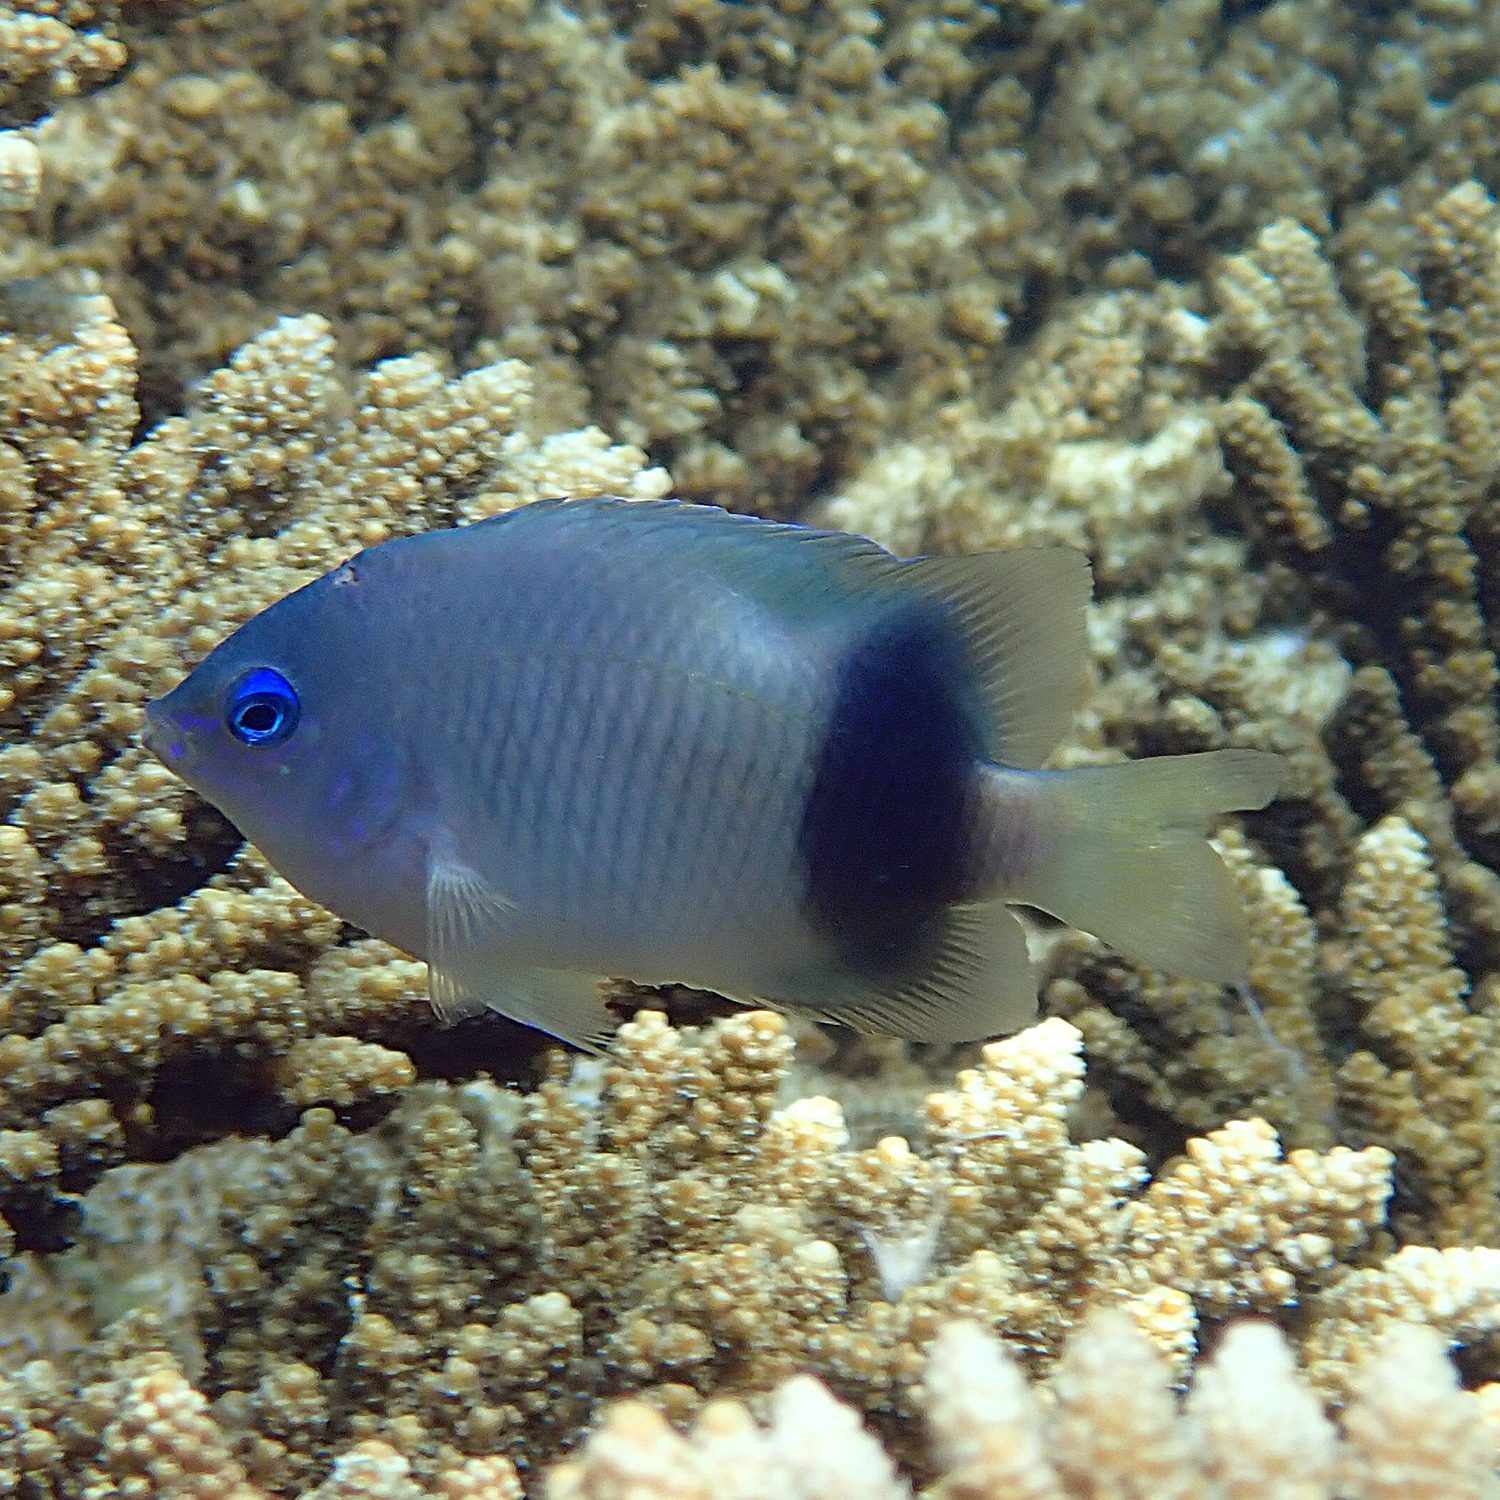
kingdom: Animalia
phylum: Chordata
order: Perciformes
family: Pomacentridae
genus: Plectroglyphidodon
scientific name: Plectroglyphidodon johnstonianus
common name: Johnston damsel
